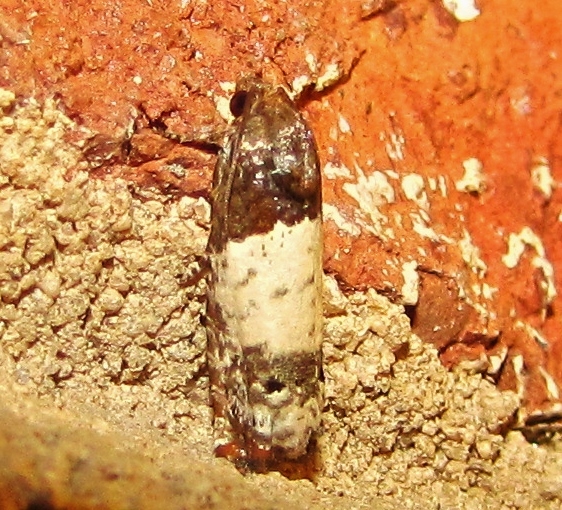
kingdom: Animalia
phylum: Arthropoda
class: Insecta
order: Lepidoptera
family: Tortricidae
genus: Epiblema
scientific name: Epiblema scudderiana
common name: Goldenrod gall moth
